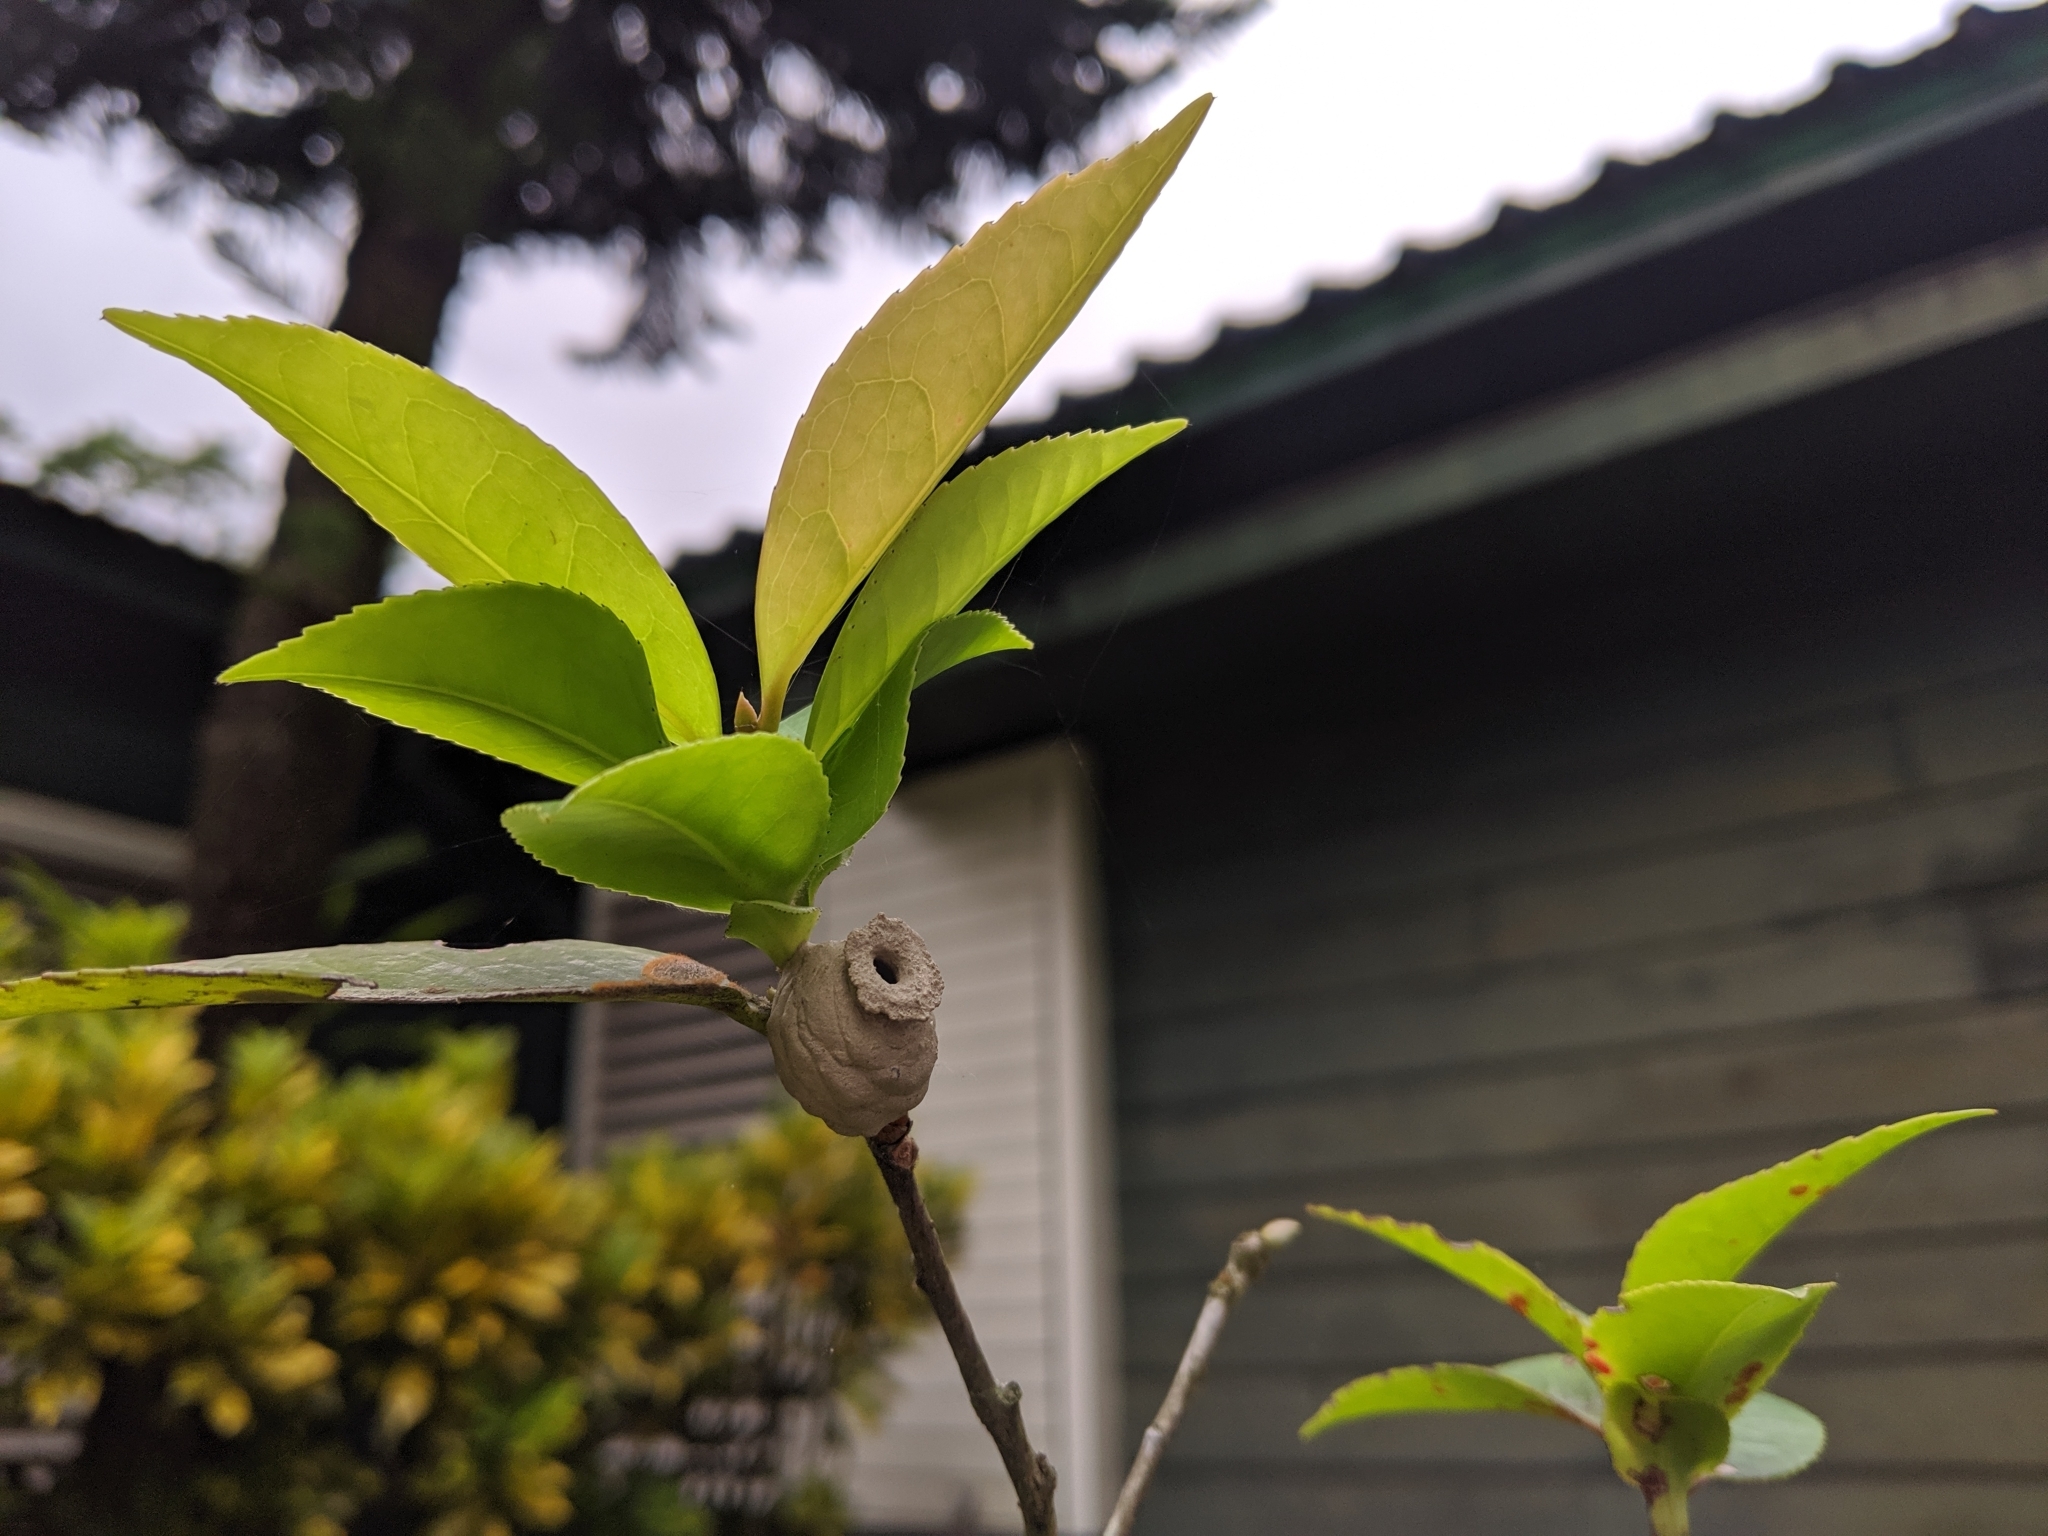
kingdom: Animalia
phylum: Arthropoda
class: Insecta
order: Hymenoptera
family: Eumenidae
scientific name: Eumenidae
